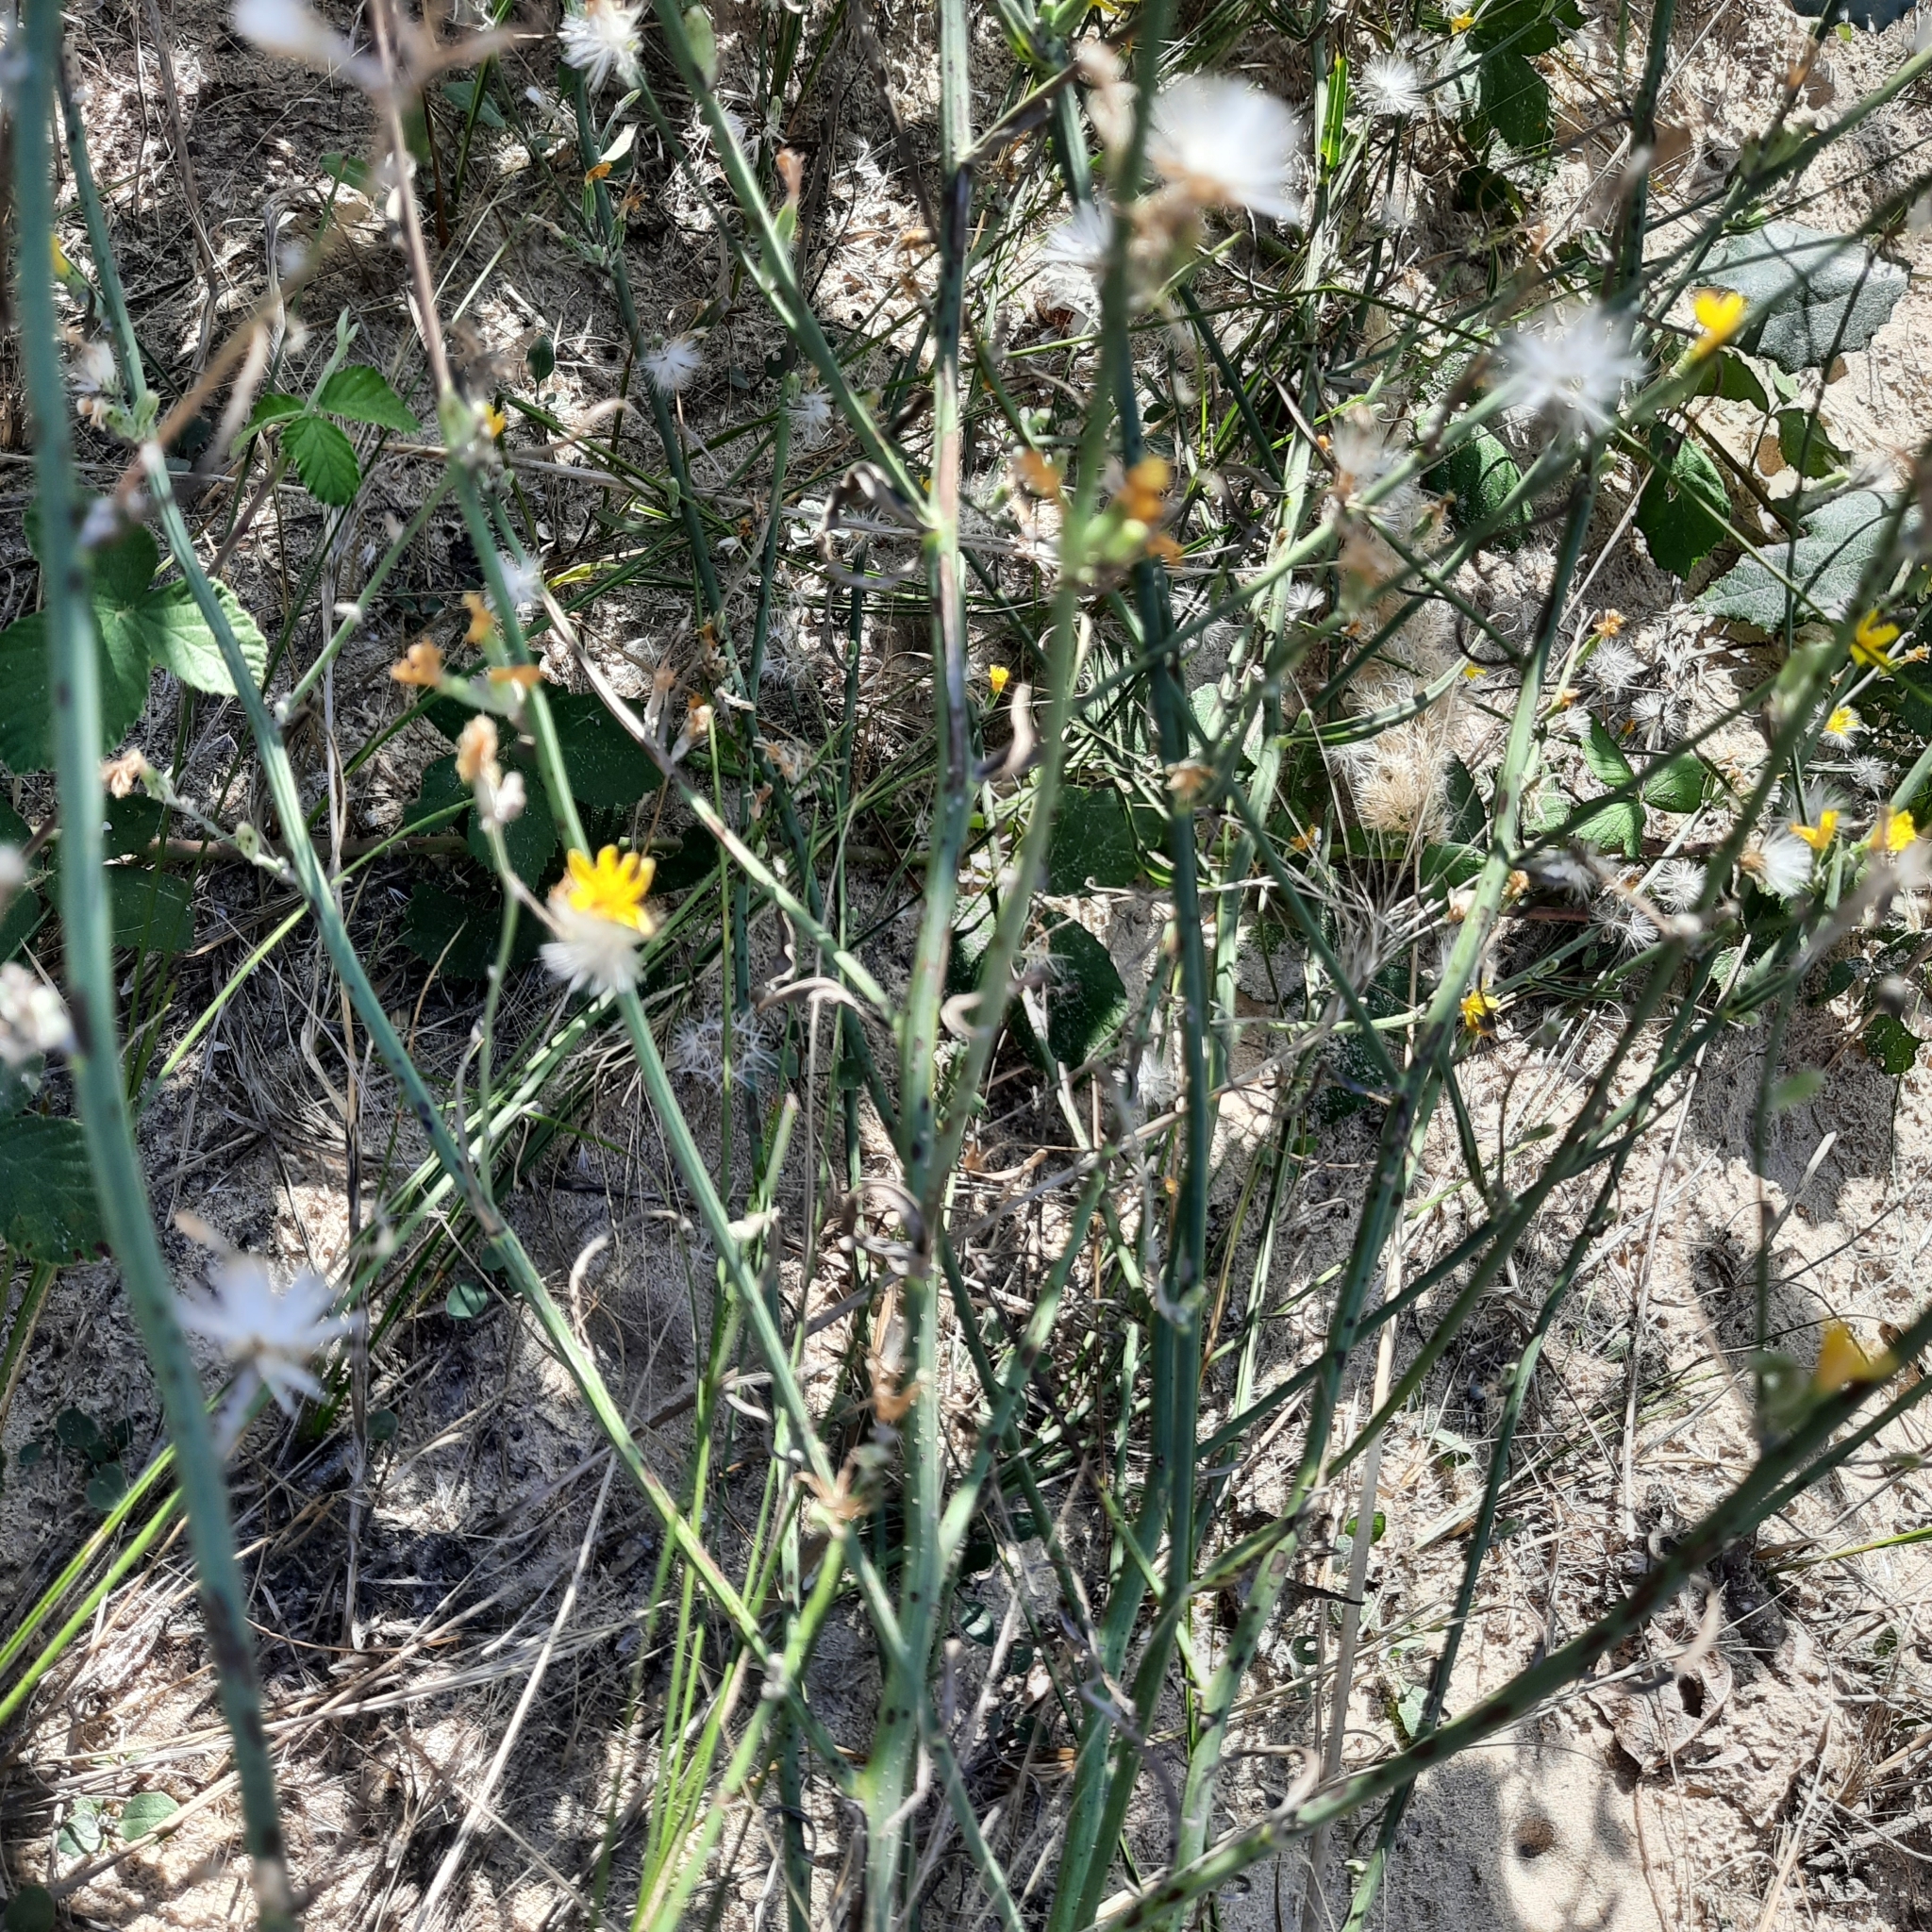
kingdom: Plantae
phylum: Tracheophyta
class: Magnoliopsida
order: Asterales
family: Asteraceae
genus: Chondrilla
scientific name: Chondrilla juncea
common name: Skeleton weed
